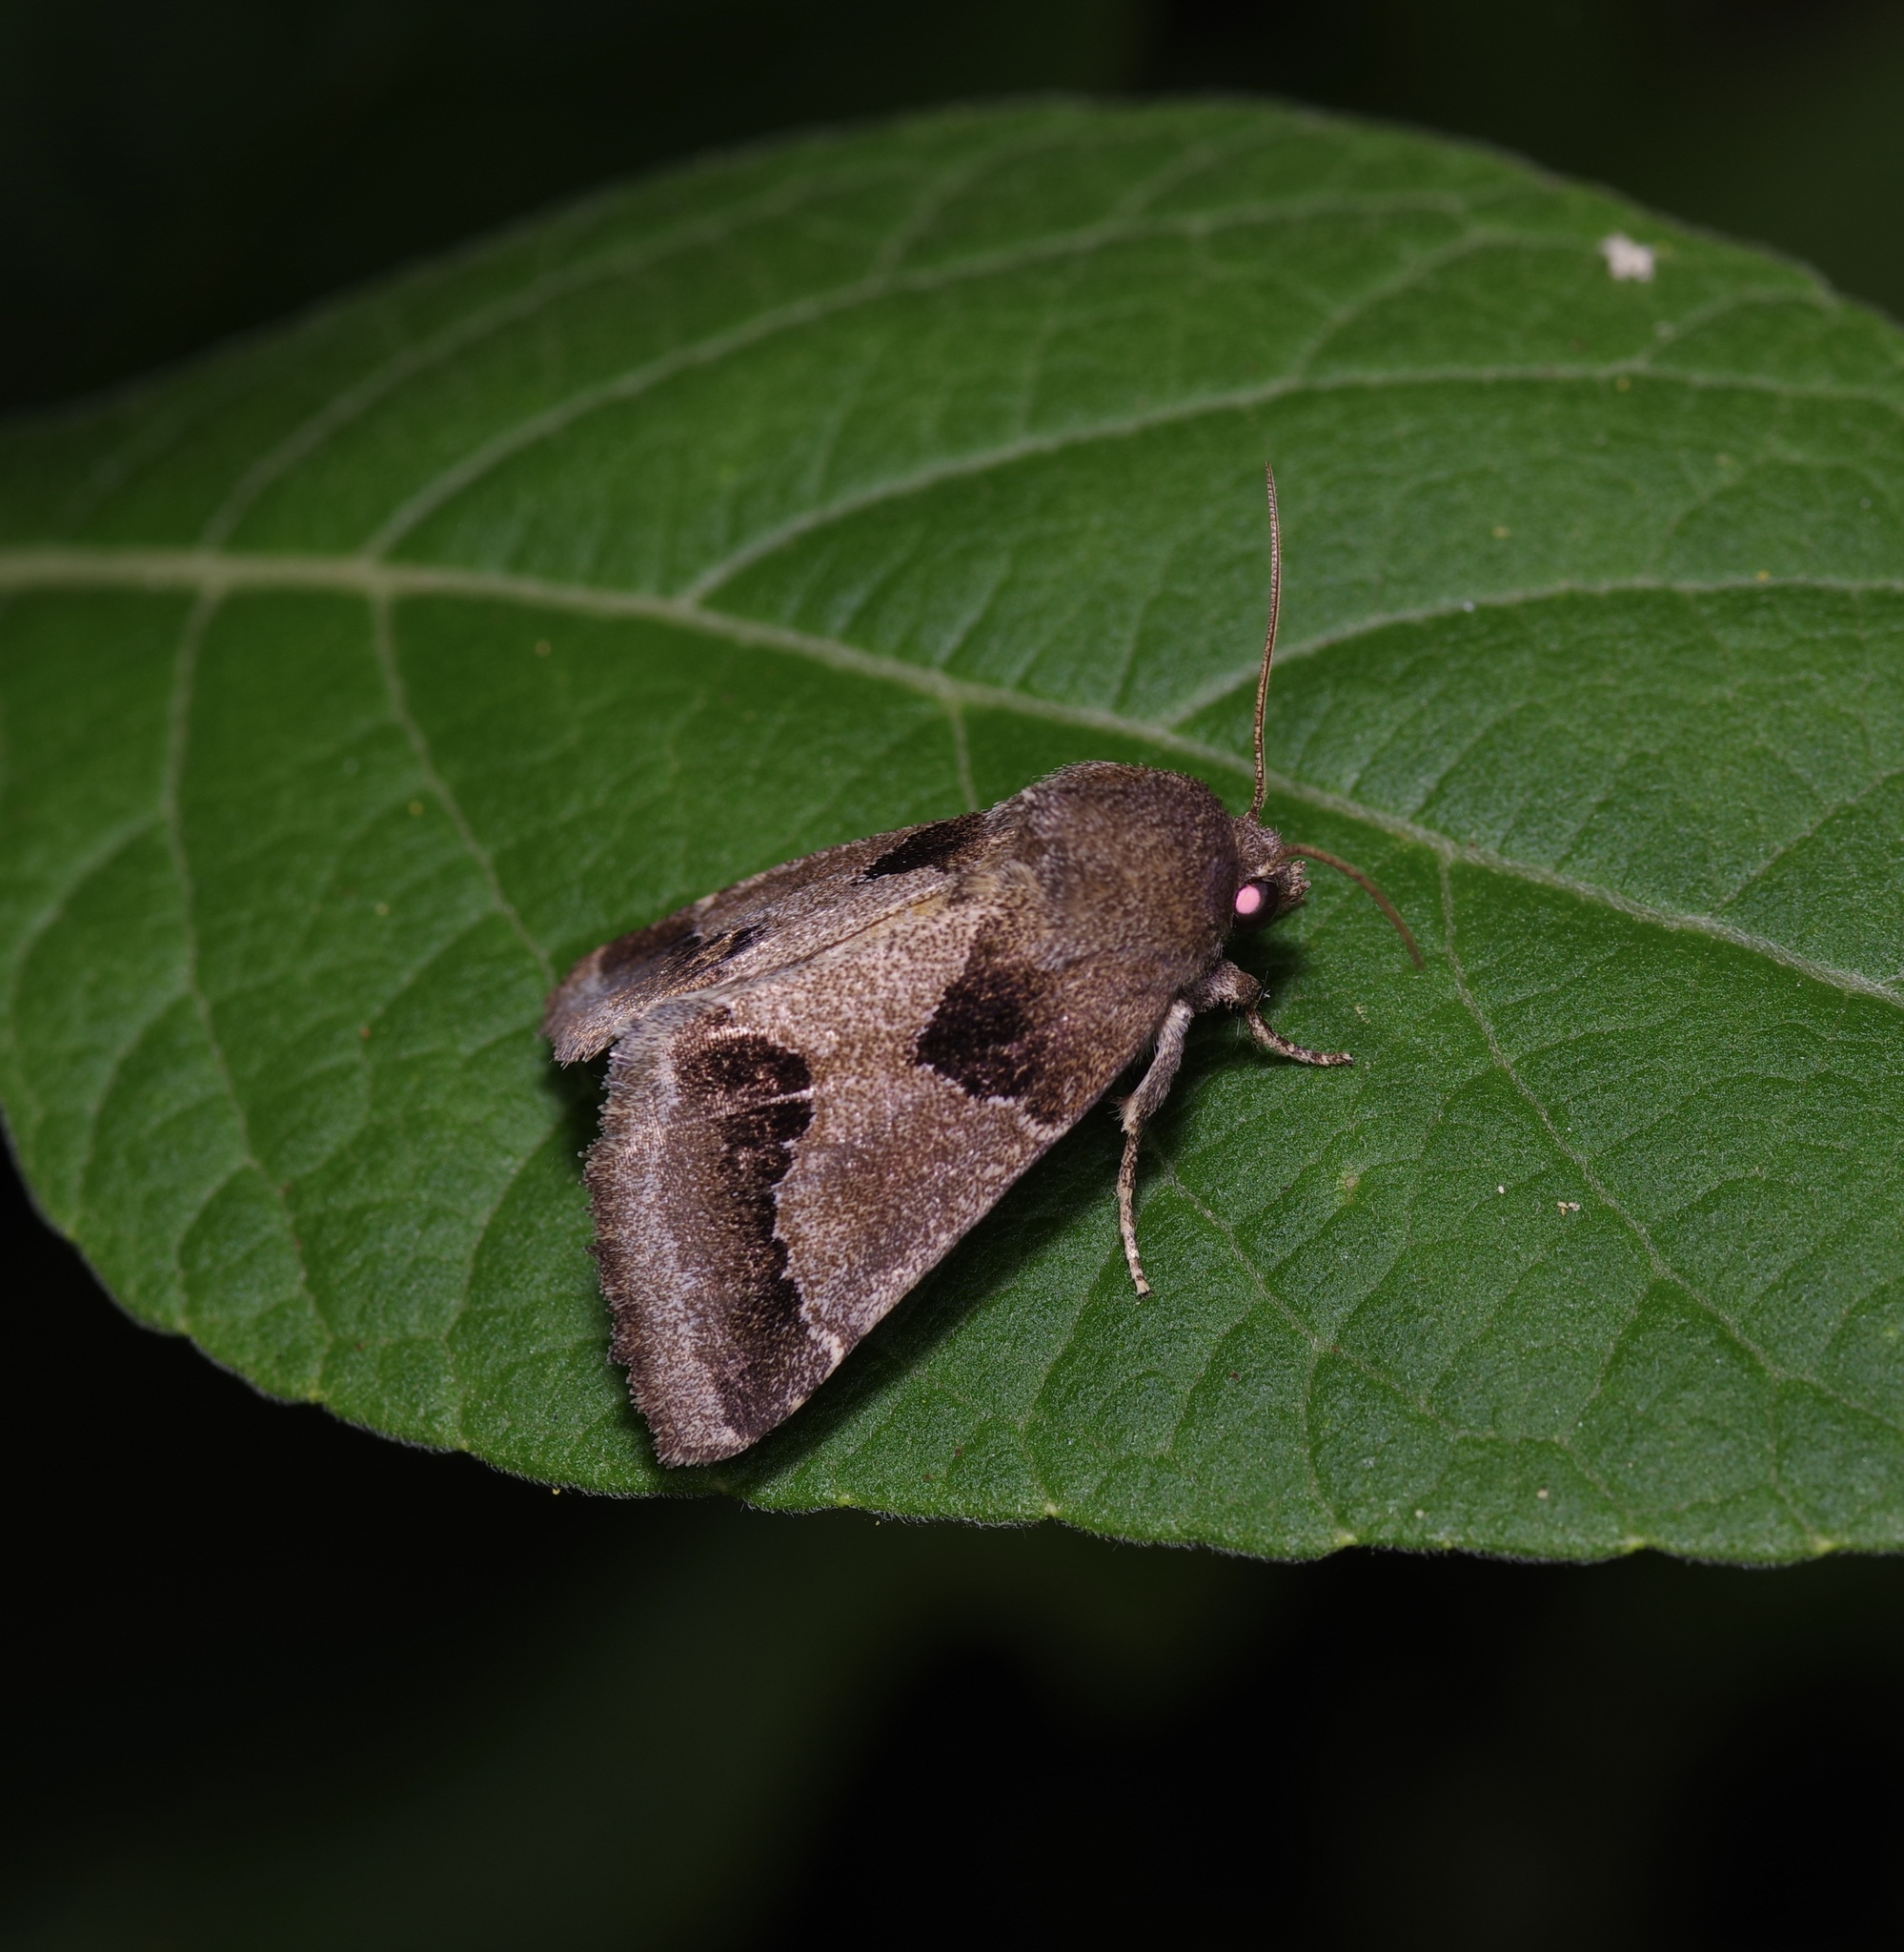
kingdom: Animalia
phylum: Arthropoda
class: Insecta
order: Lepidoptera
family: Noctuidae
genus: Schinia
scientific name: Schinia thoreaui
